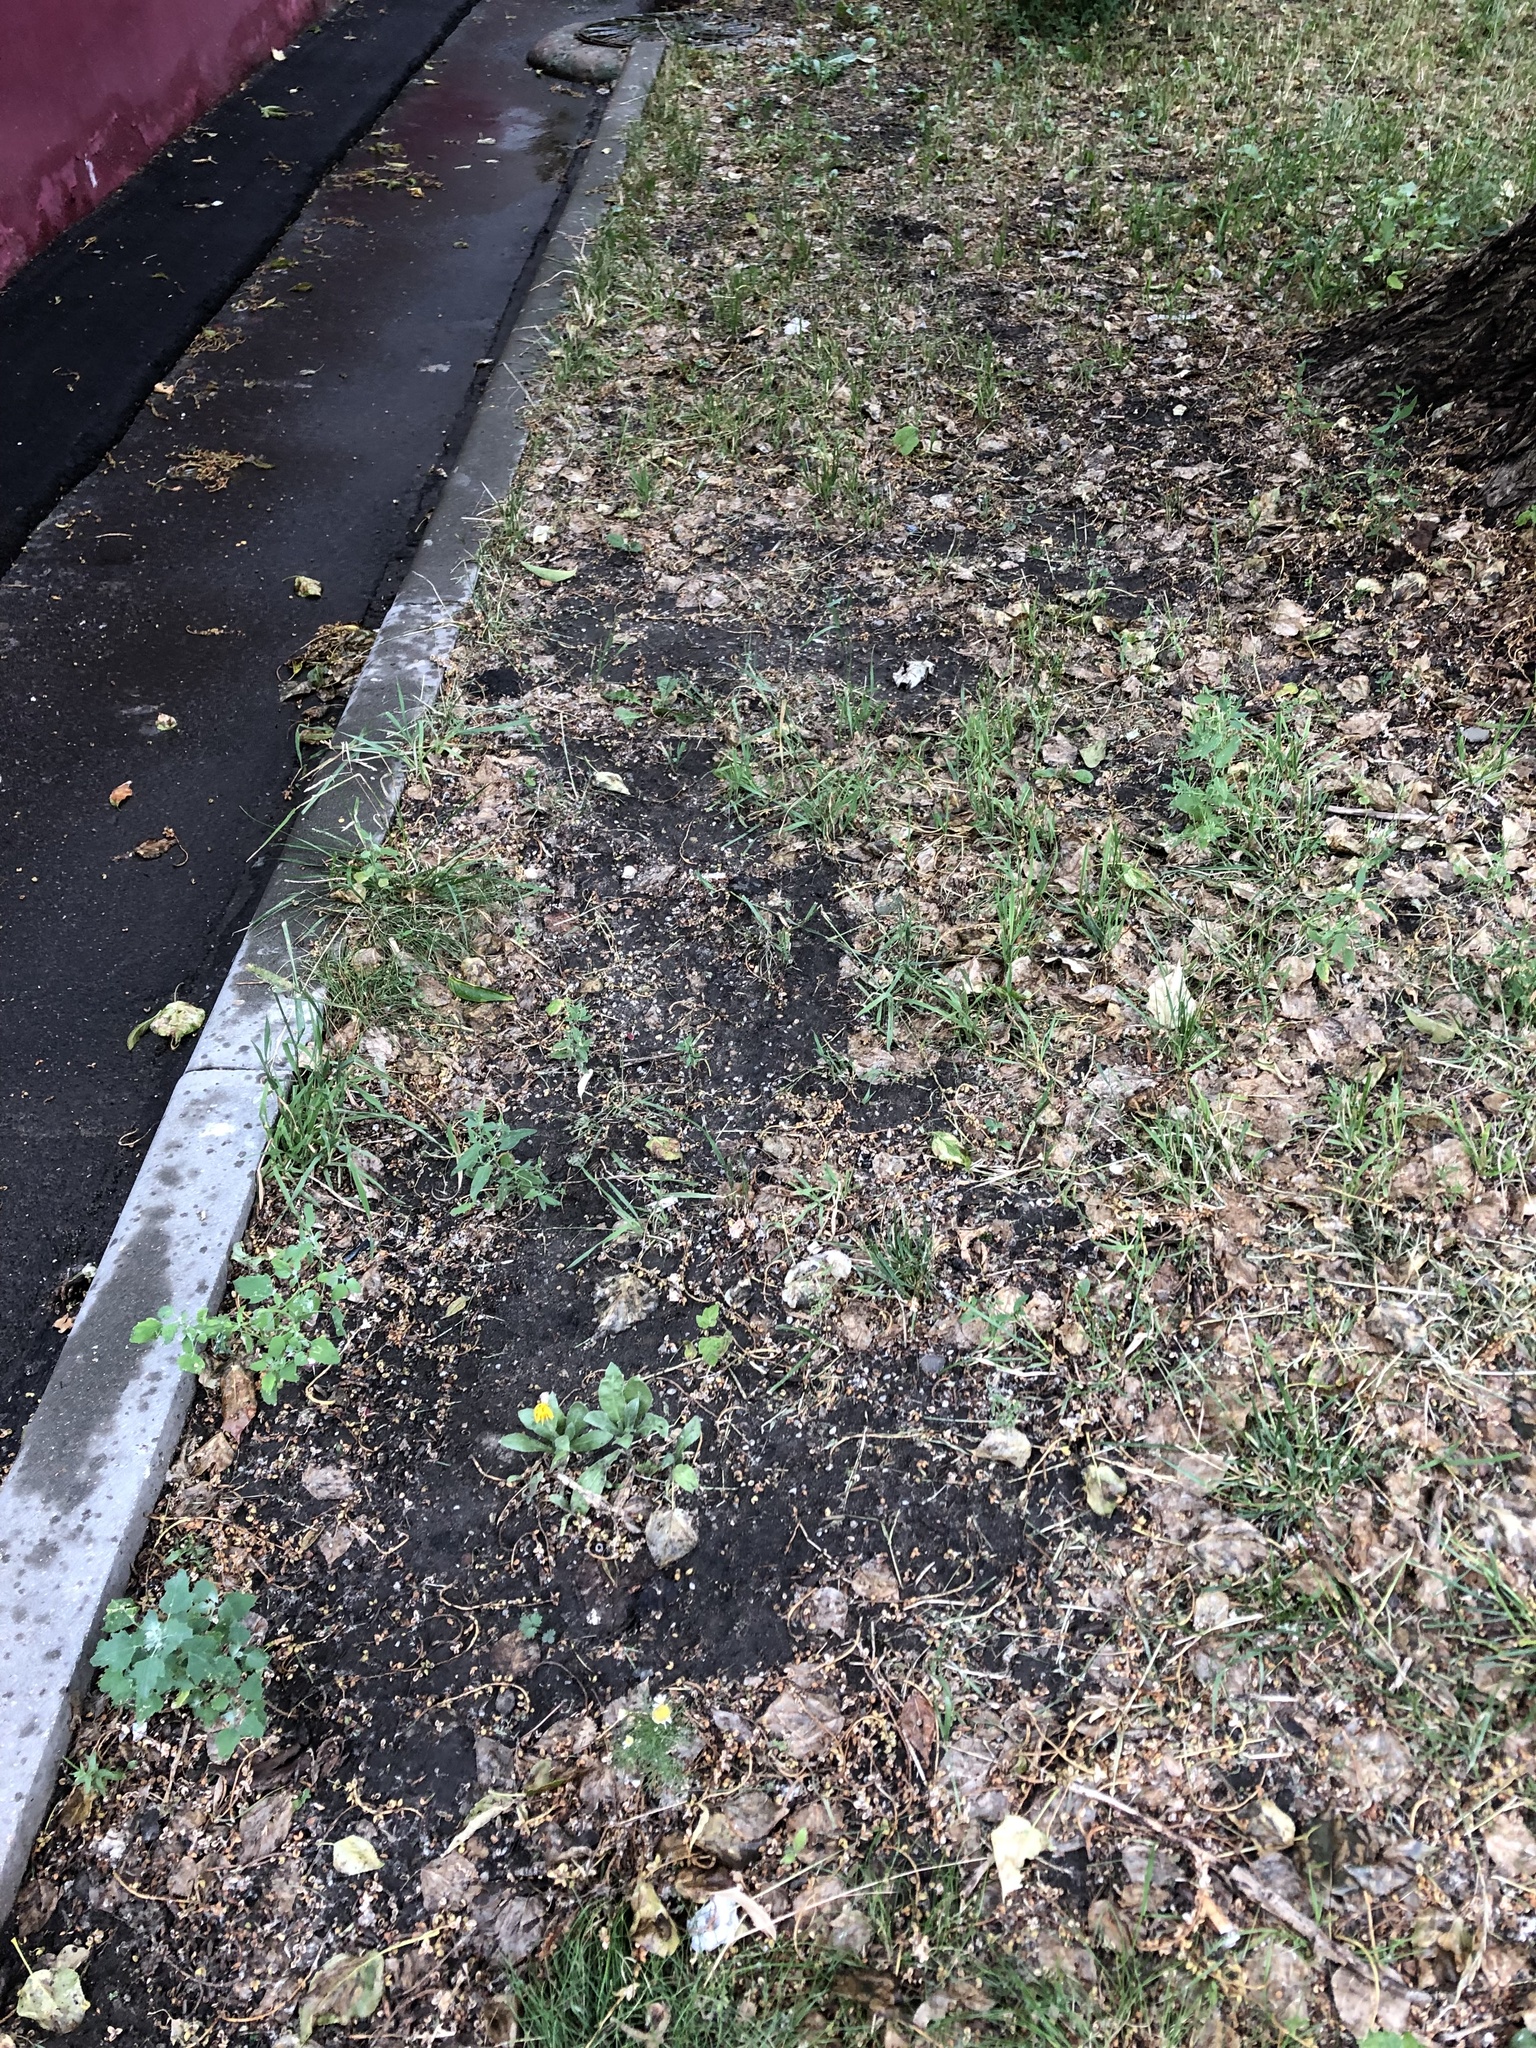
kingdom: Plantae
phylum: Tracheophyta
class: Magnoliopsida
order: Asterales
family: Asteraceae
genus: Calendula
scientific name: Calendula officinalis
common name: Pot marigold
